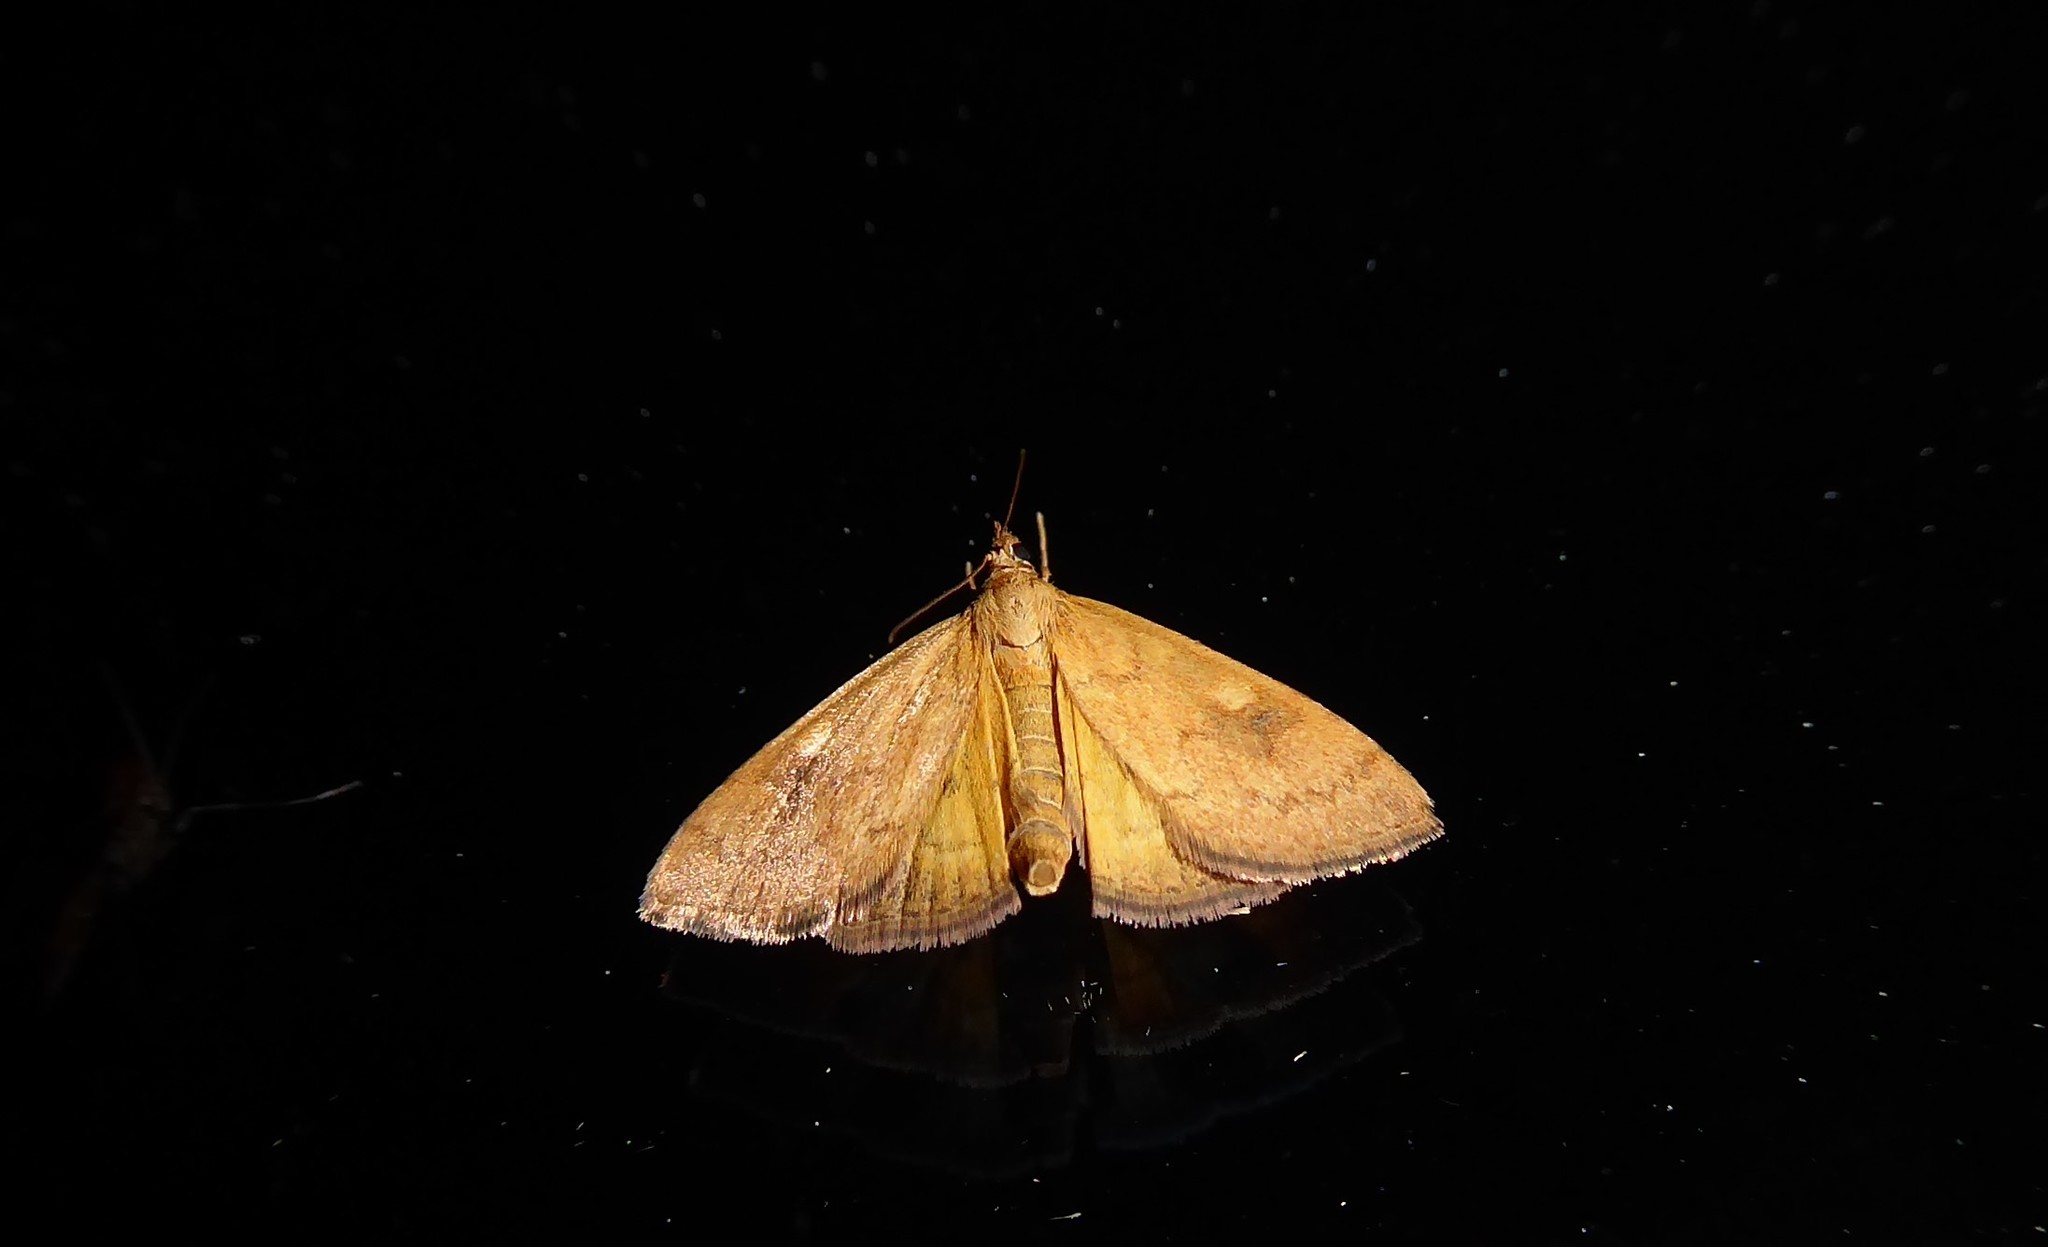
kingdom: Animalia
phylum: Arthropoda
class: Insecta
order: Lepidoptera
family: Crambidae
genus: Udea
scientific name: Udea Mnesictena flavidalis
